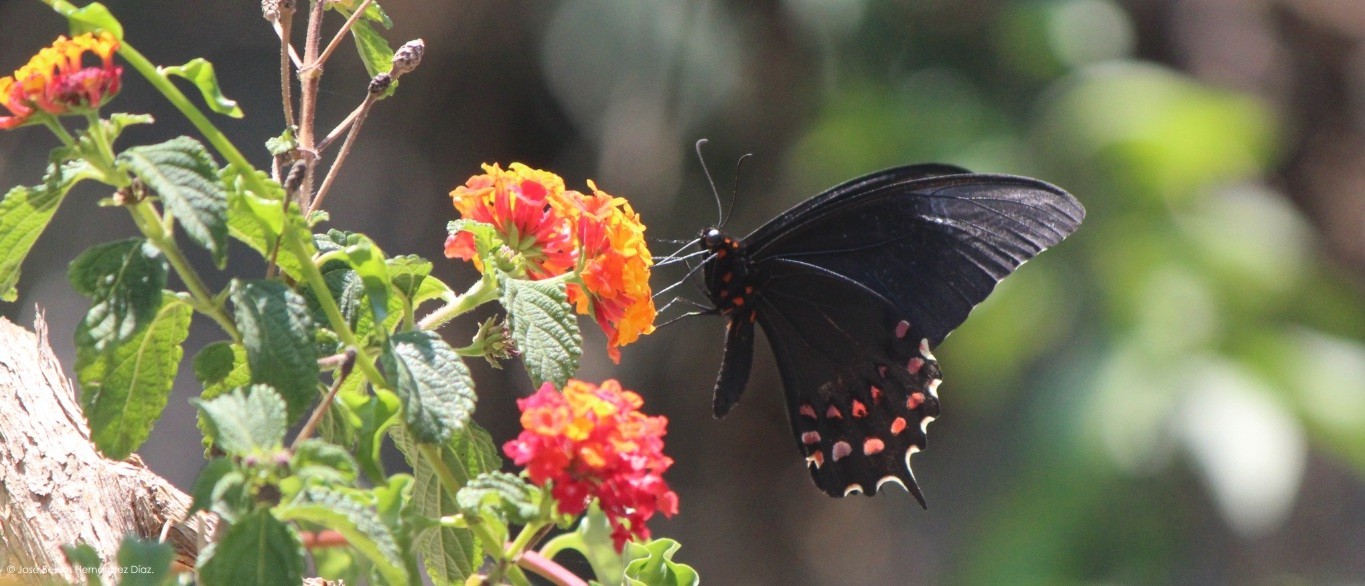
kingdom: Animalia
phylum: Arthropoda
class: Insecta
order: Lepidoptera
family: Papilionidae
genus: Heraclides
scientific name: Heraclides rogeri
